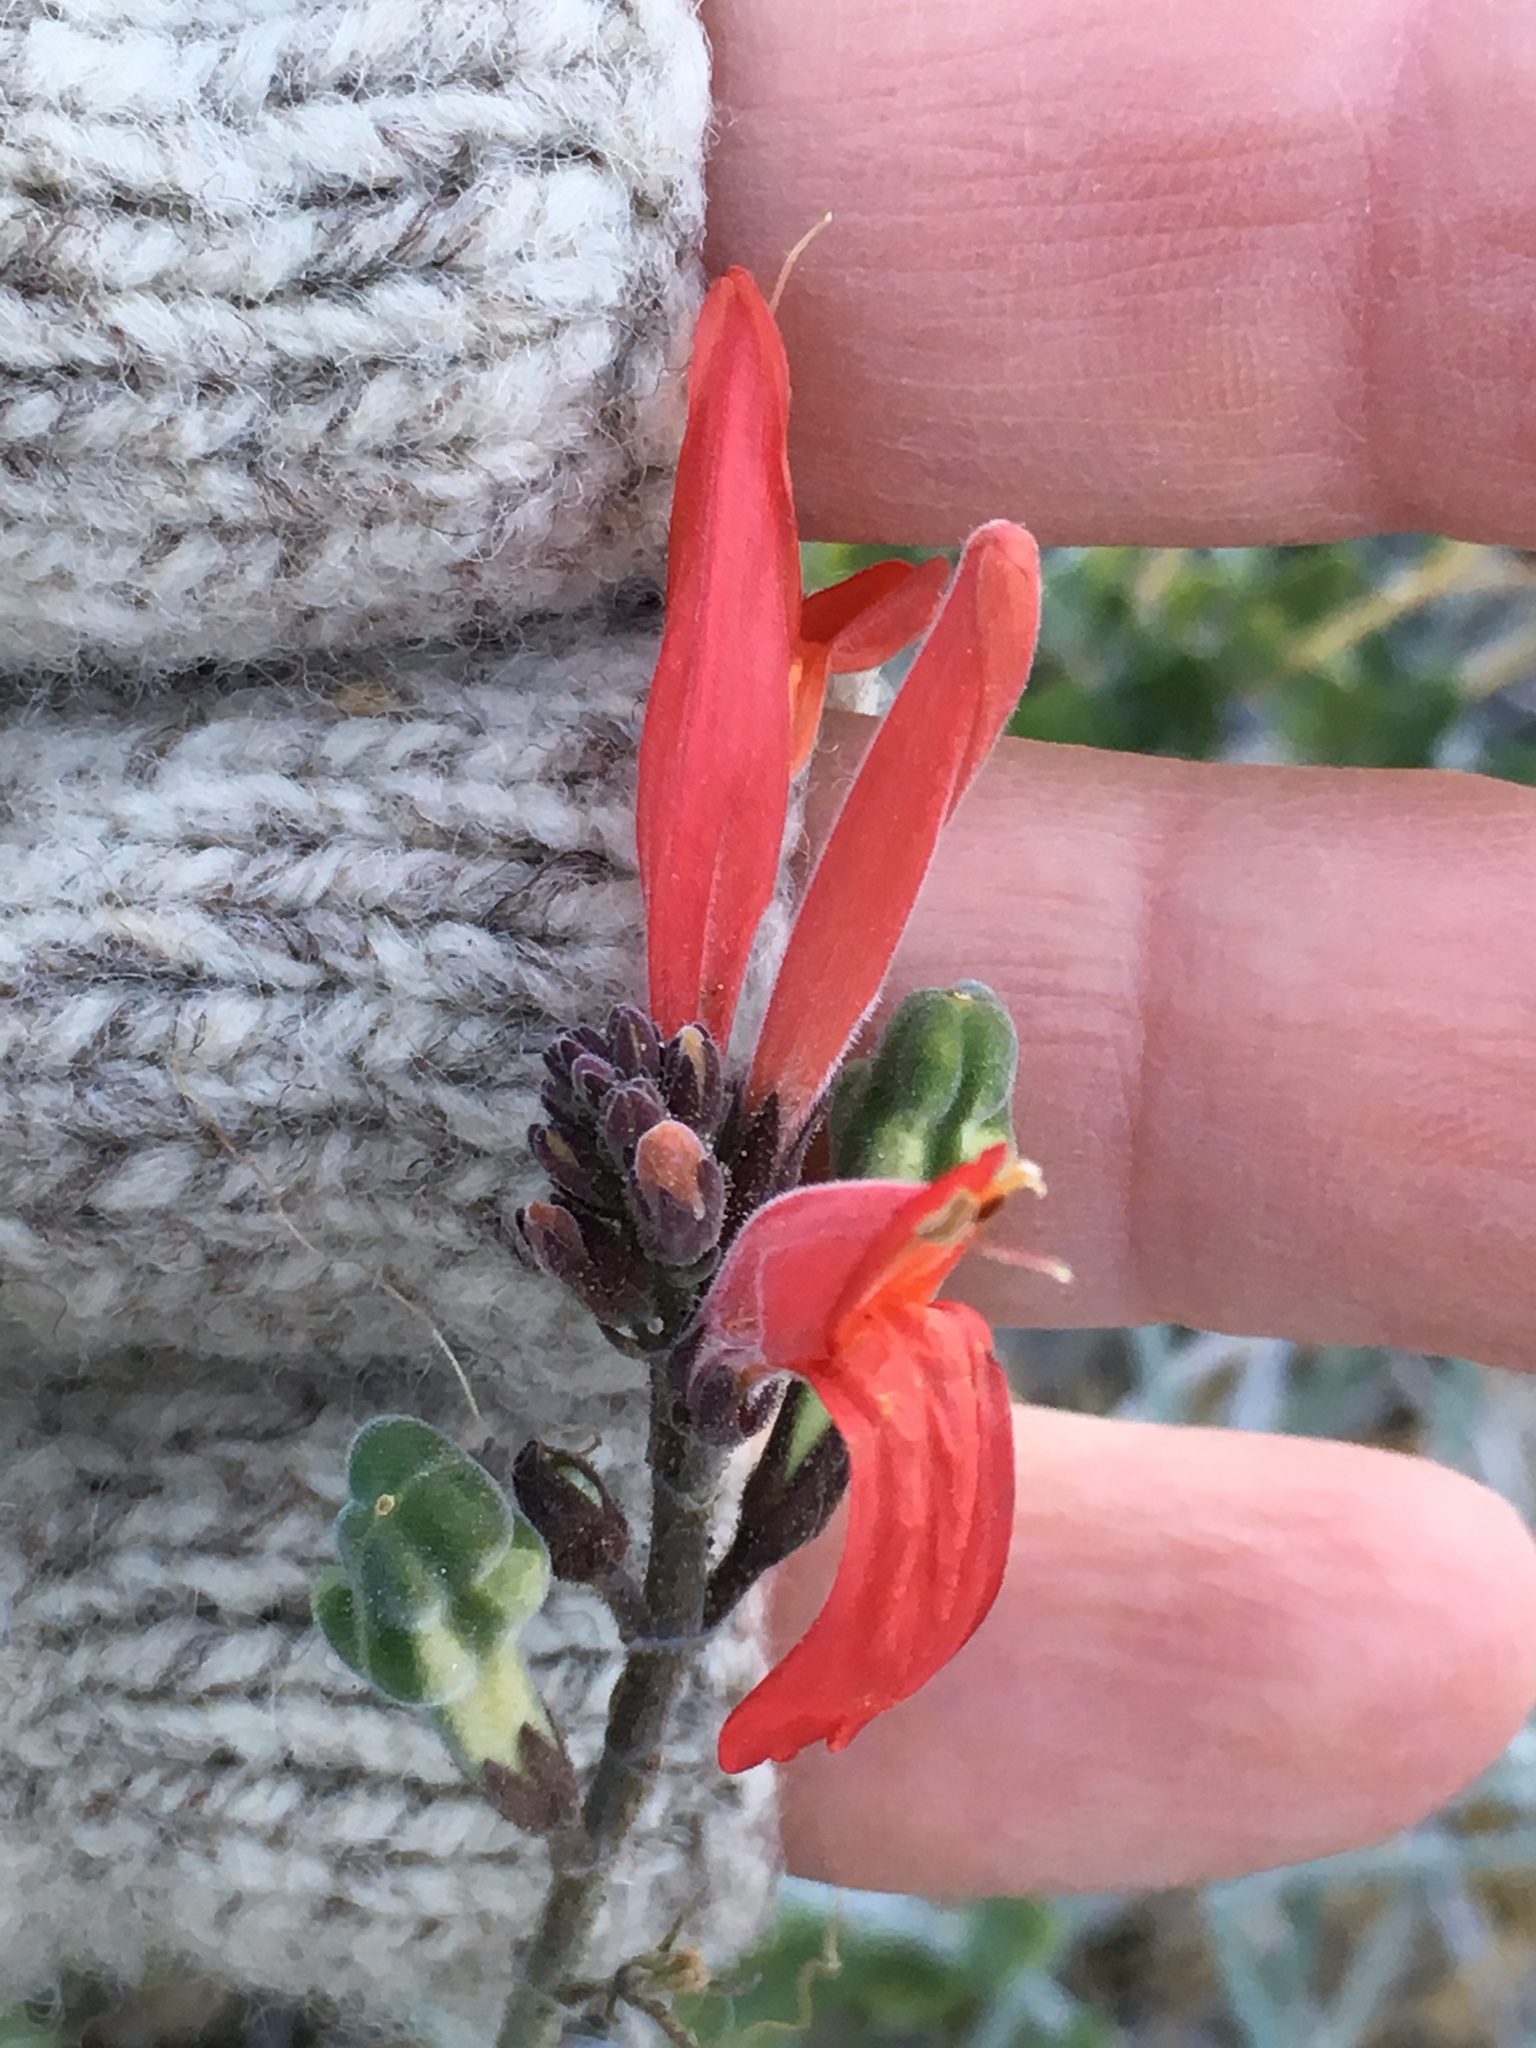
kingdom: Plantae
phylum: Tracheophyta
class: Magnoliopsida
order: Lamiales
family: Acanthaceae
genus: Justicia
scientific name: Justicia californica
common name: Chuparosa-honeysuckle
